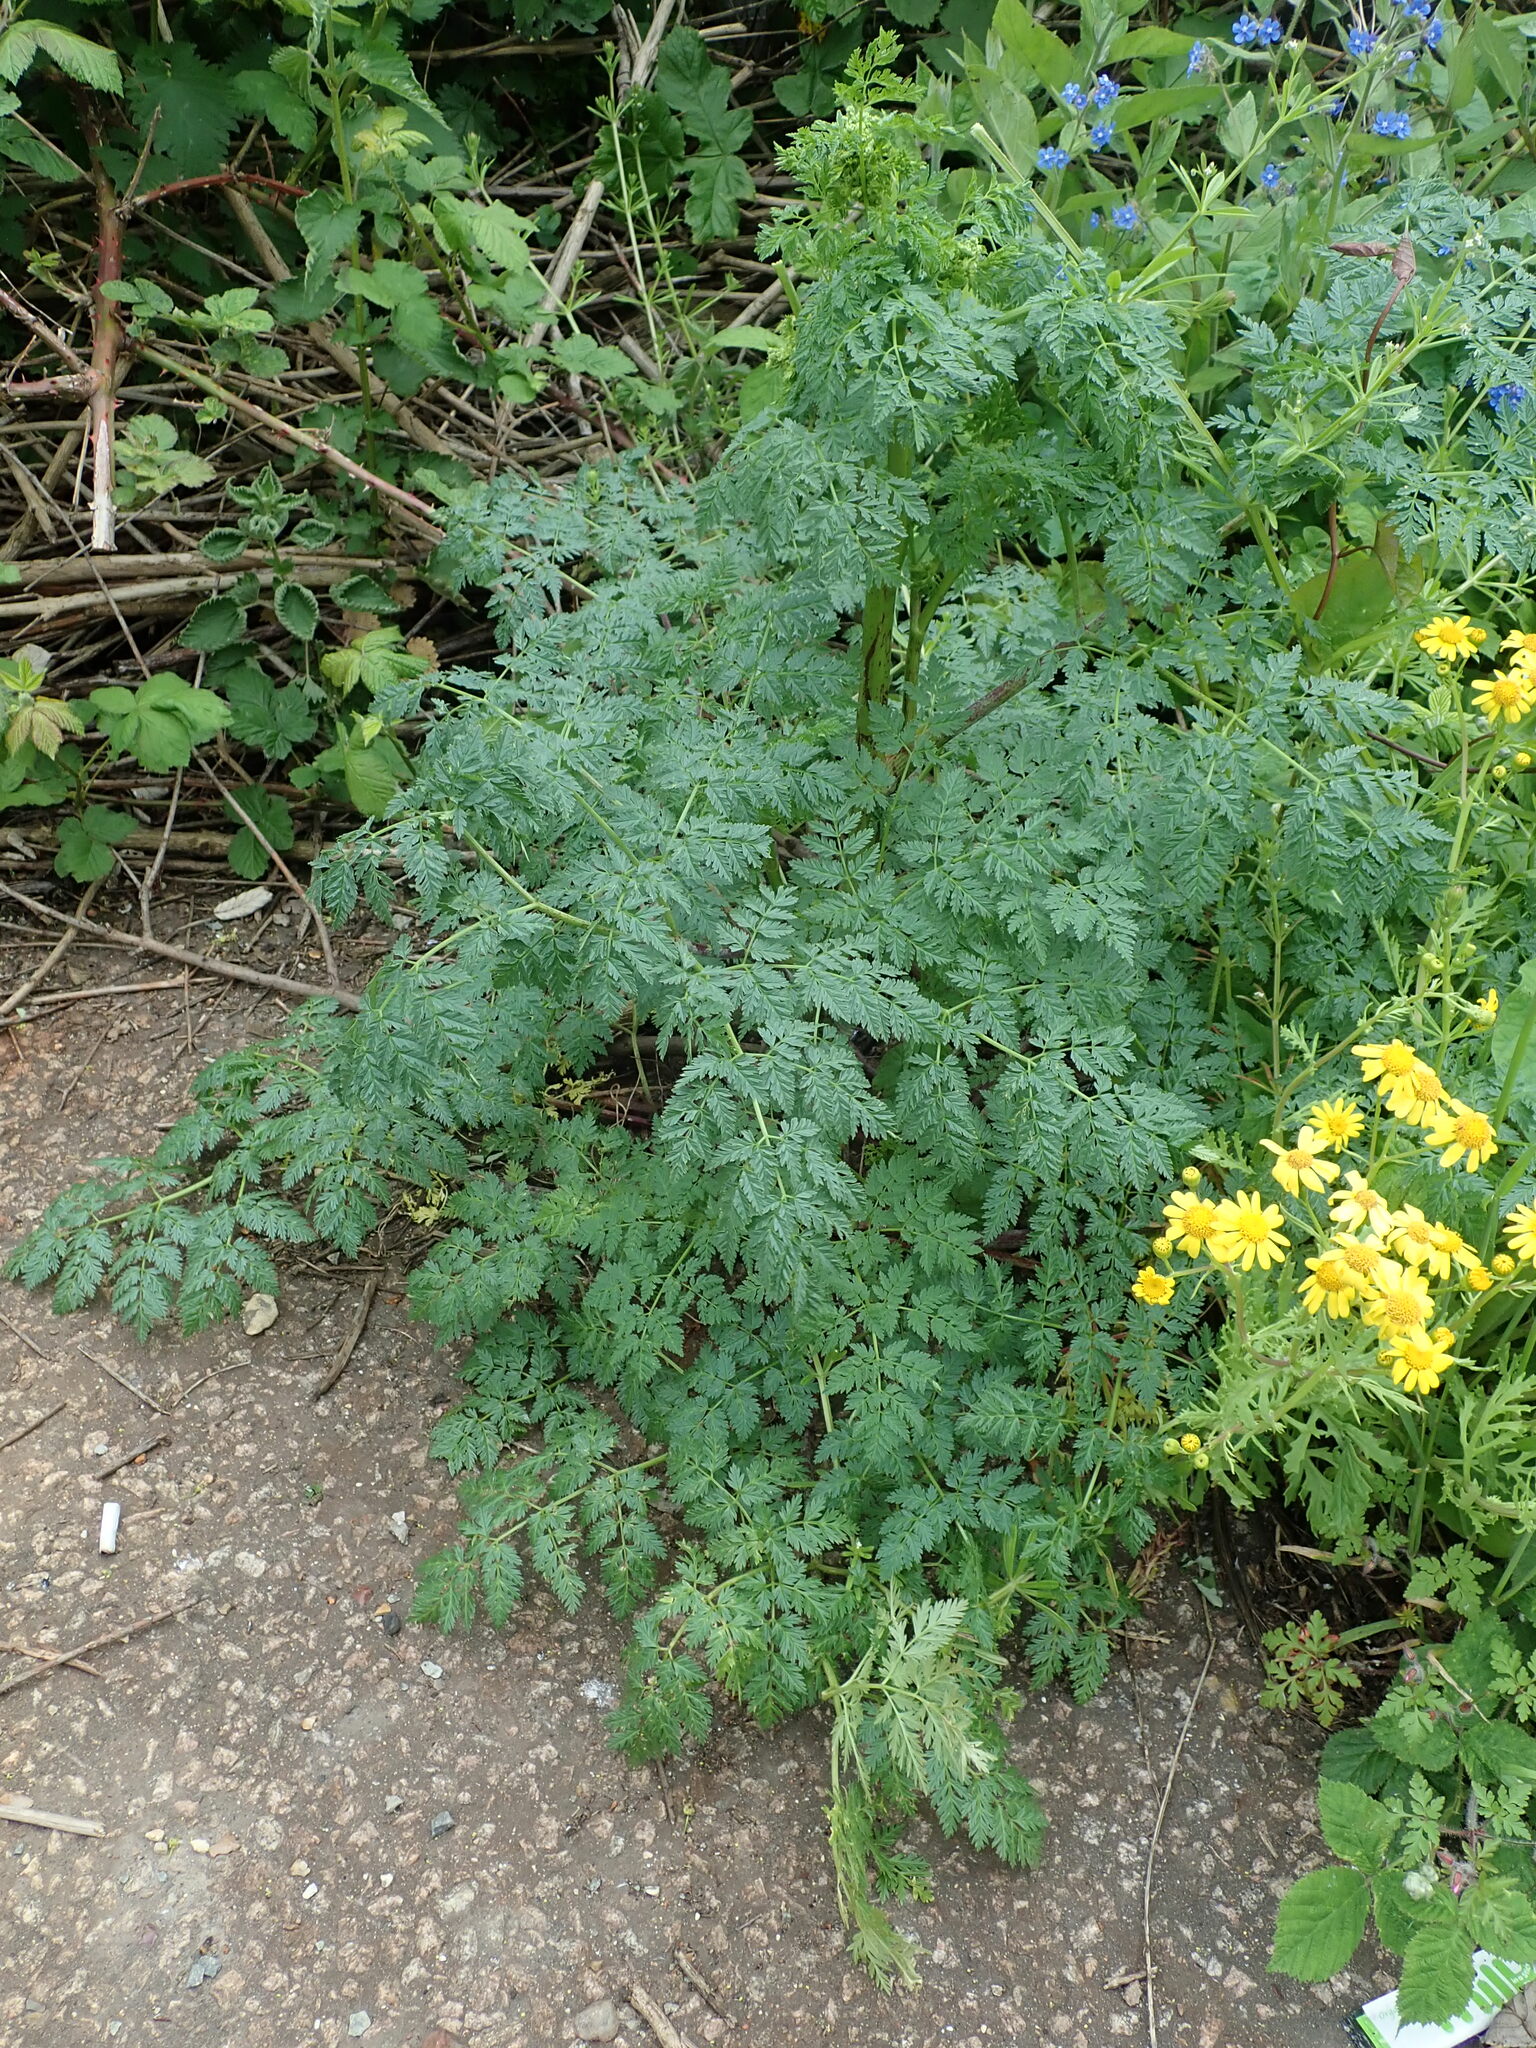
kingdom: Plantae
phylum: Tracheophyta
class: Magnoliopsida
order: Apiales
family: Apiaceae
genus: Conium
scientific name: Conium maculatum
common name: Hemlock
